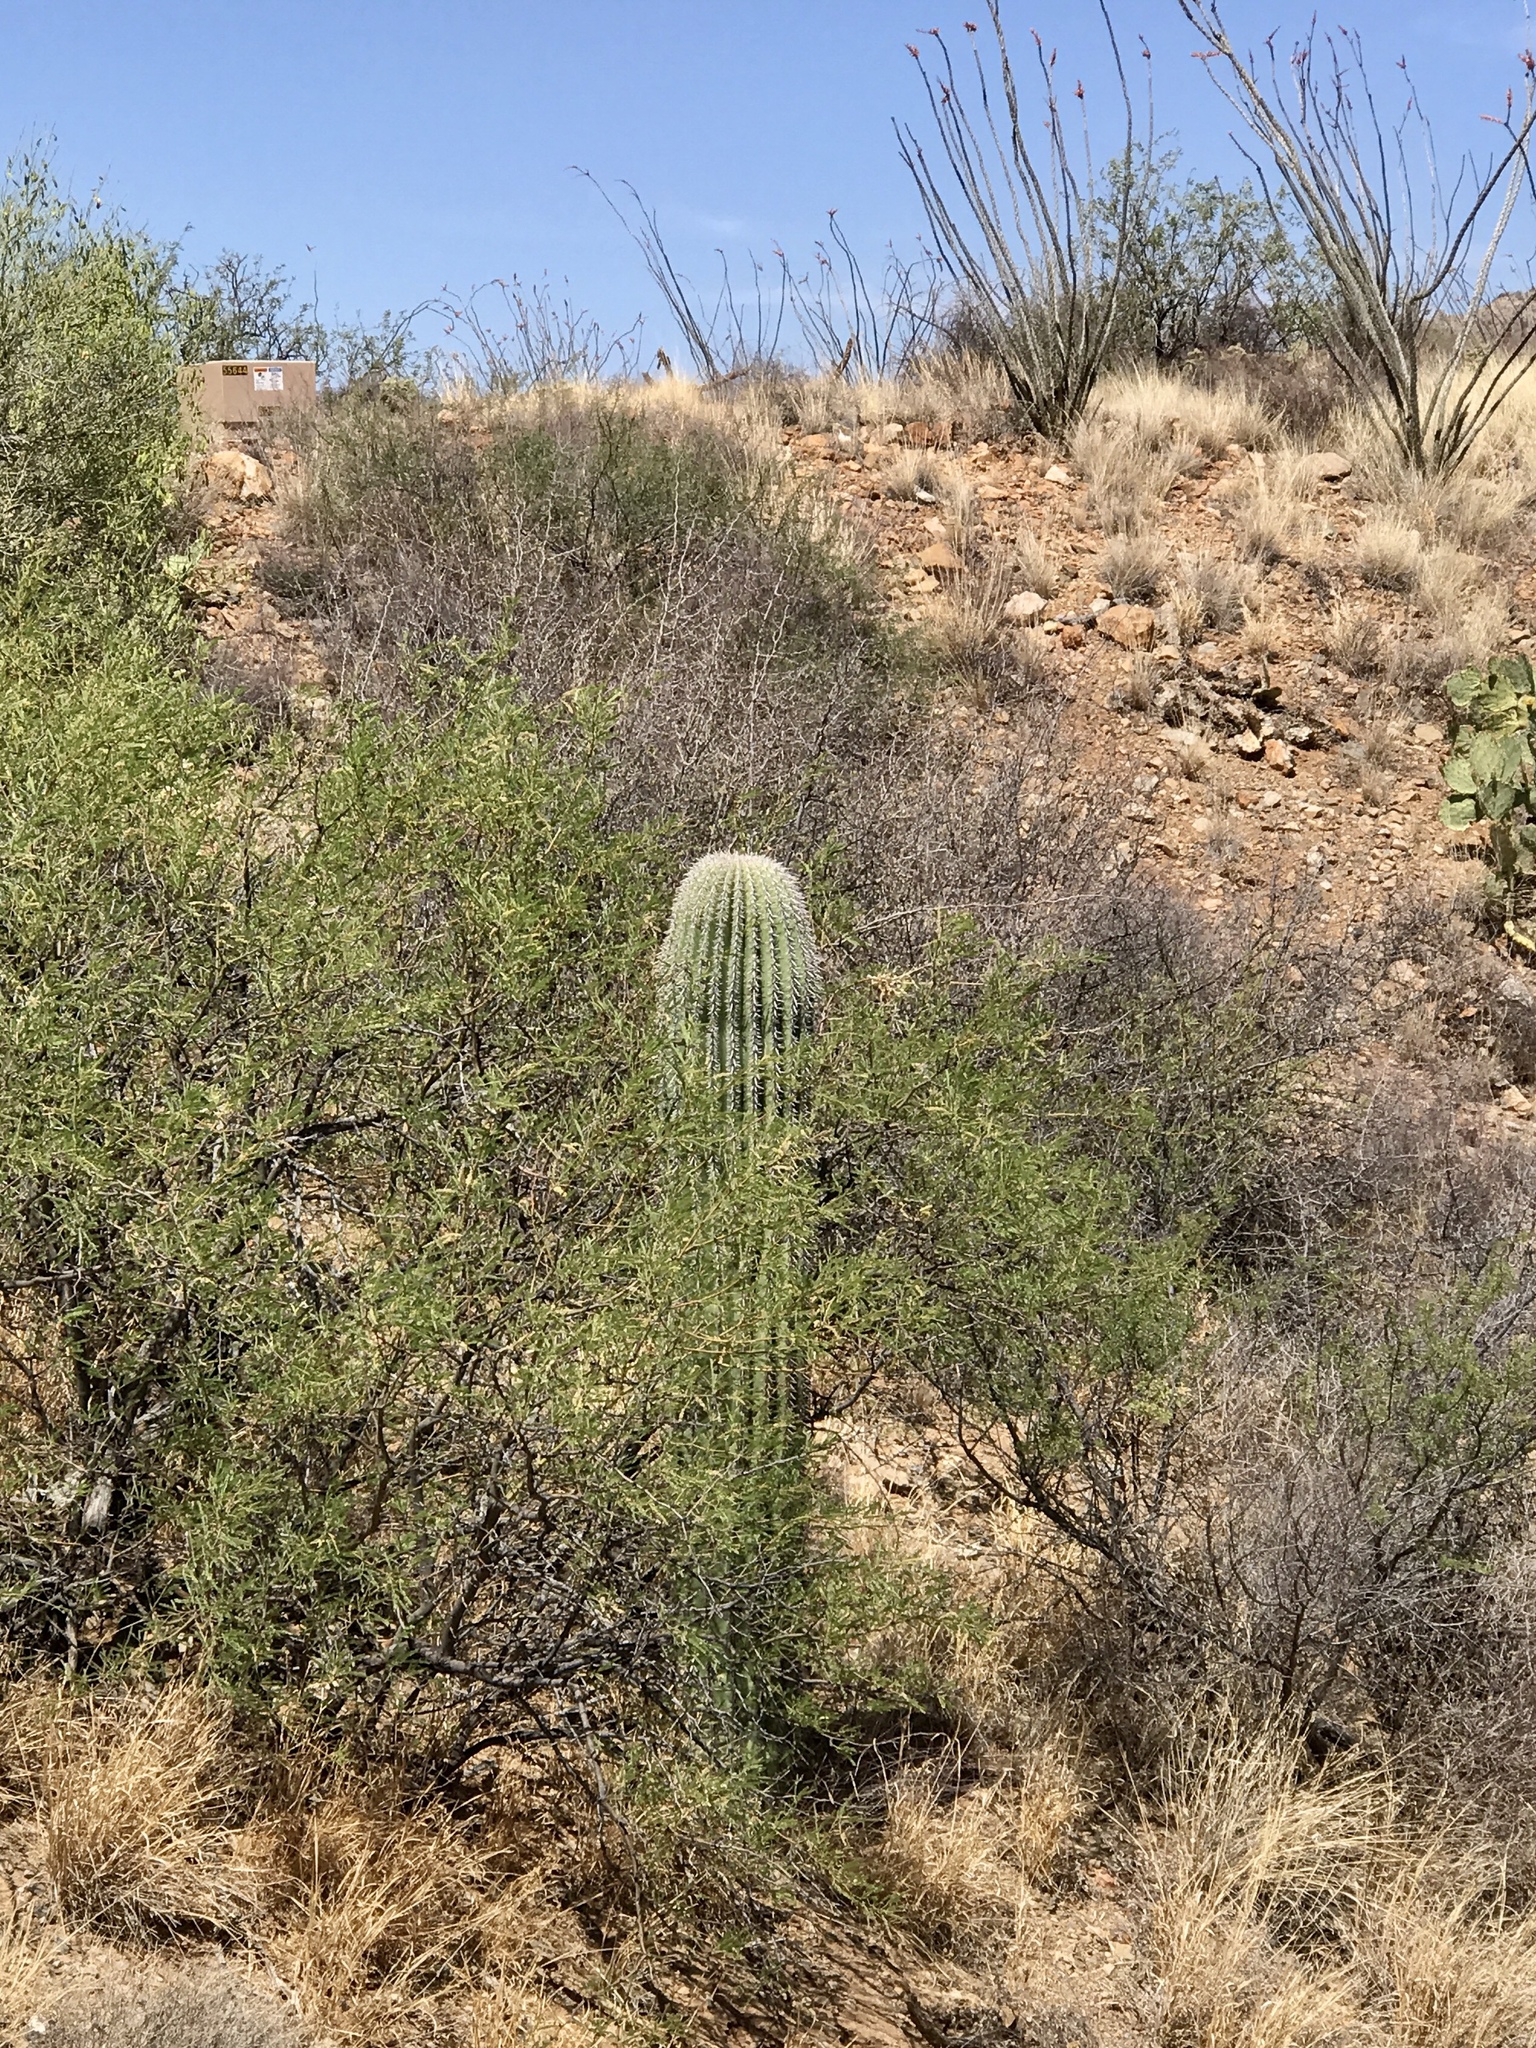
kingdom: Plantae
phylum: Tracheophyta
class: Magnoliopsida
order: Caryophyllales
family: Cactaceae
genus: Carnegiea
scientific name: Carnegiea gigantea
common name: Saguaro
